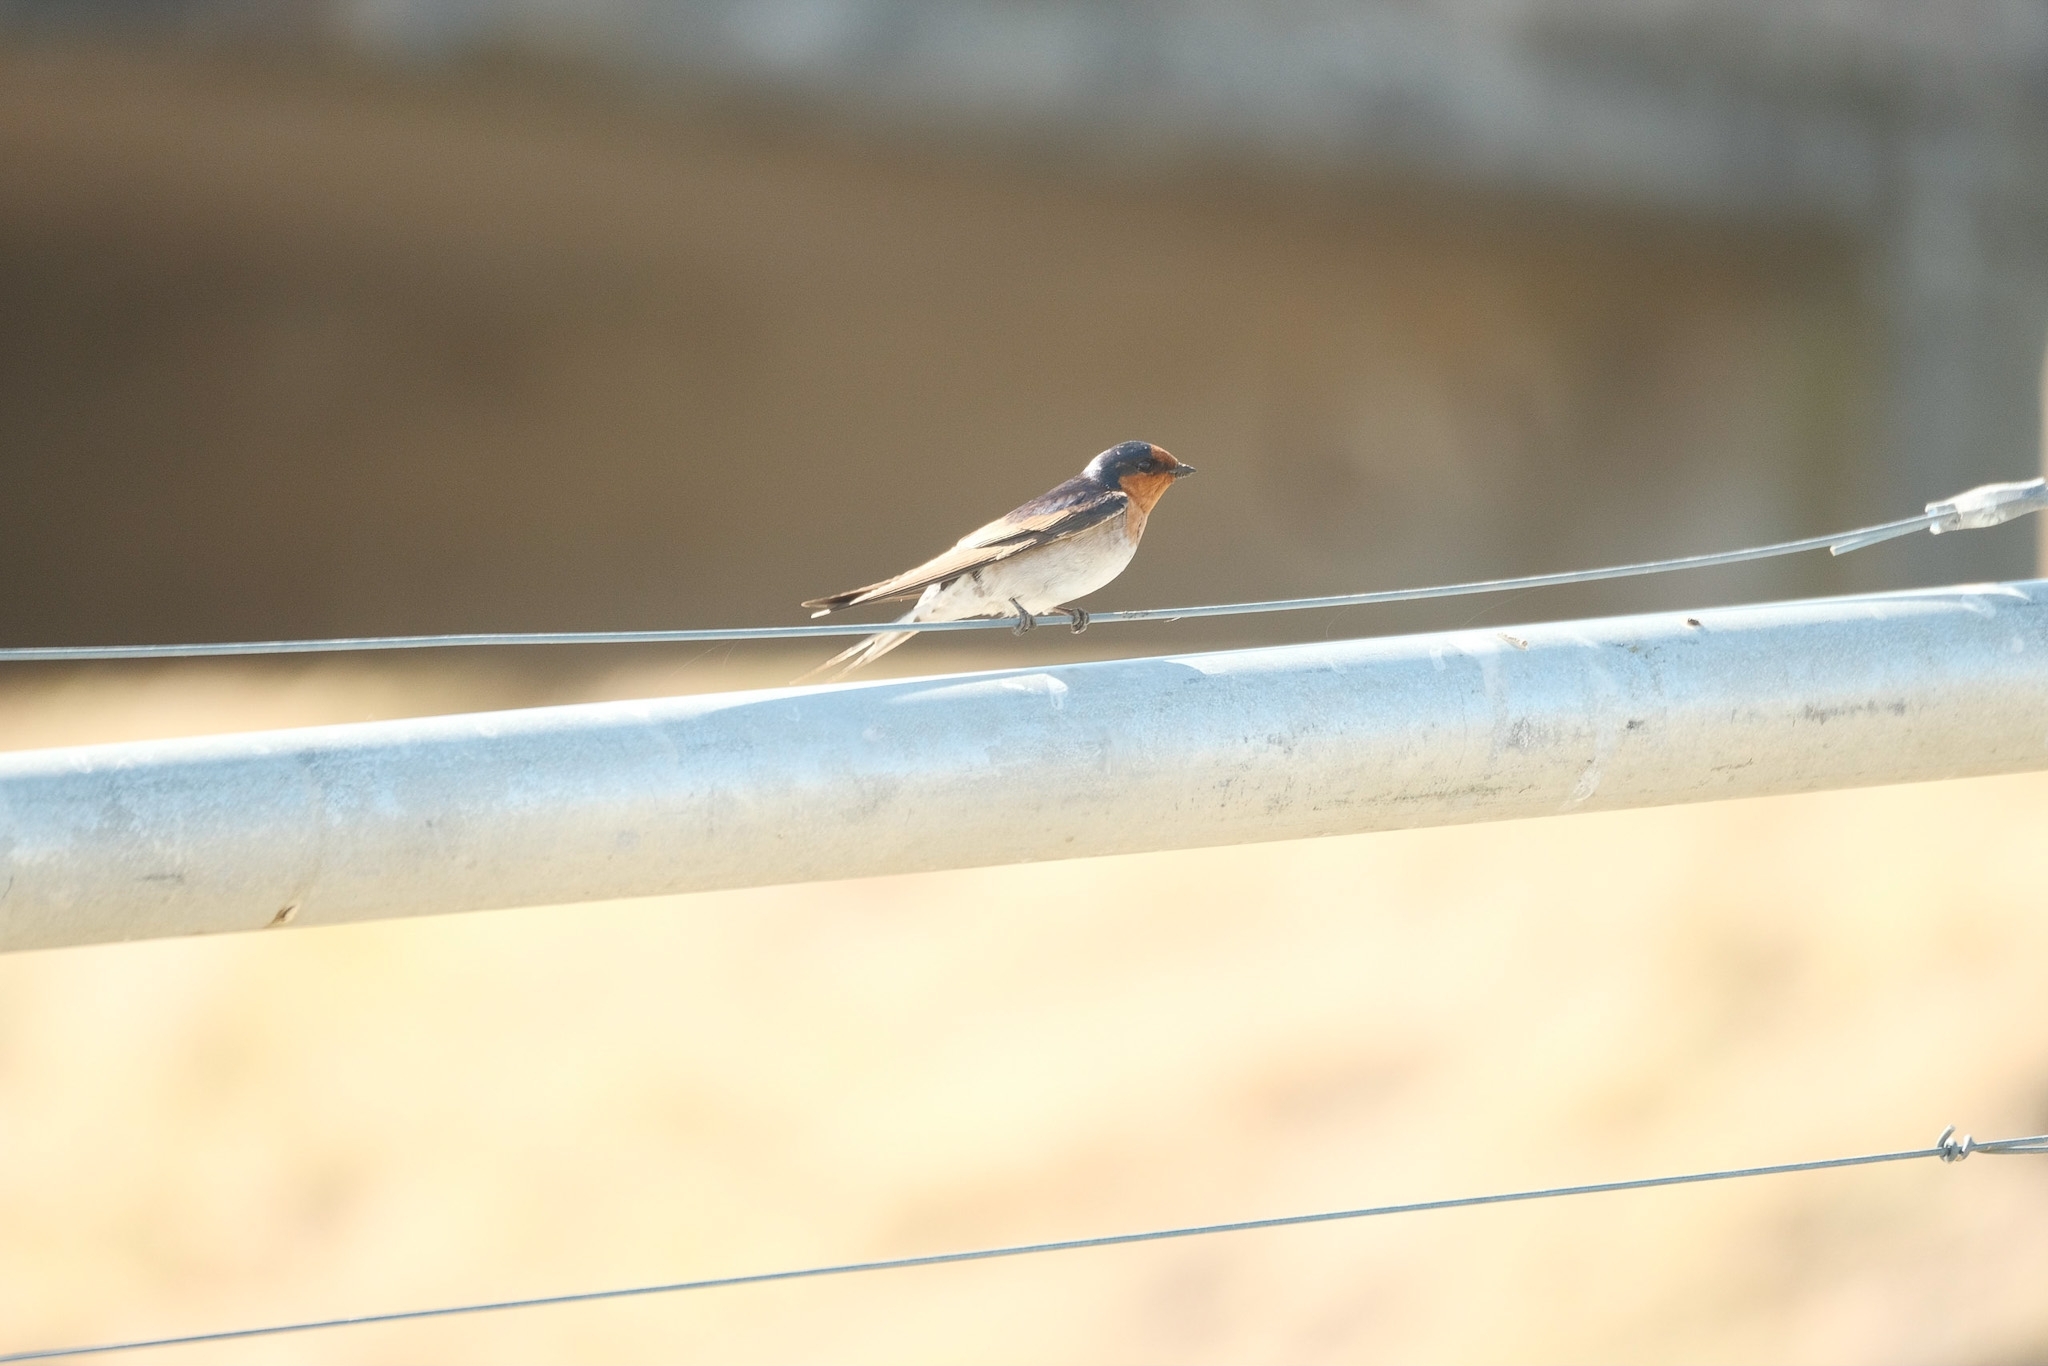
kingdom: Animalia
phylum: Chordata
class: Aves
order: Passeriformes
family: Hirundinidae
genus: Hirundo
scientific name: Hirundo neoxena
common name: Welcome swallow
